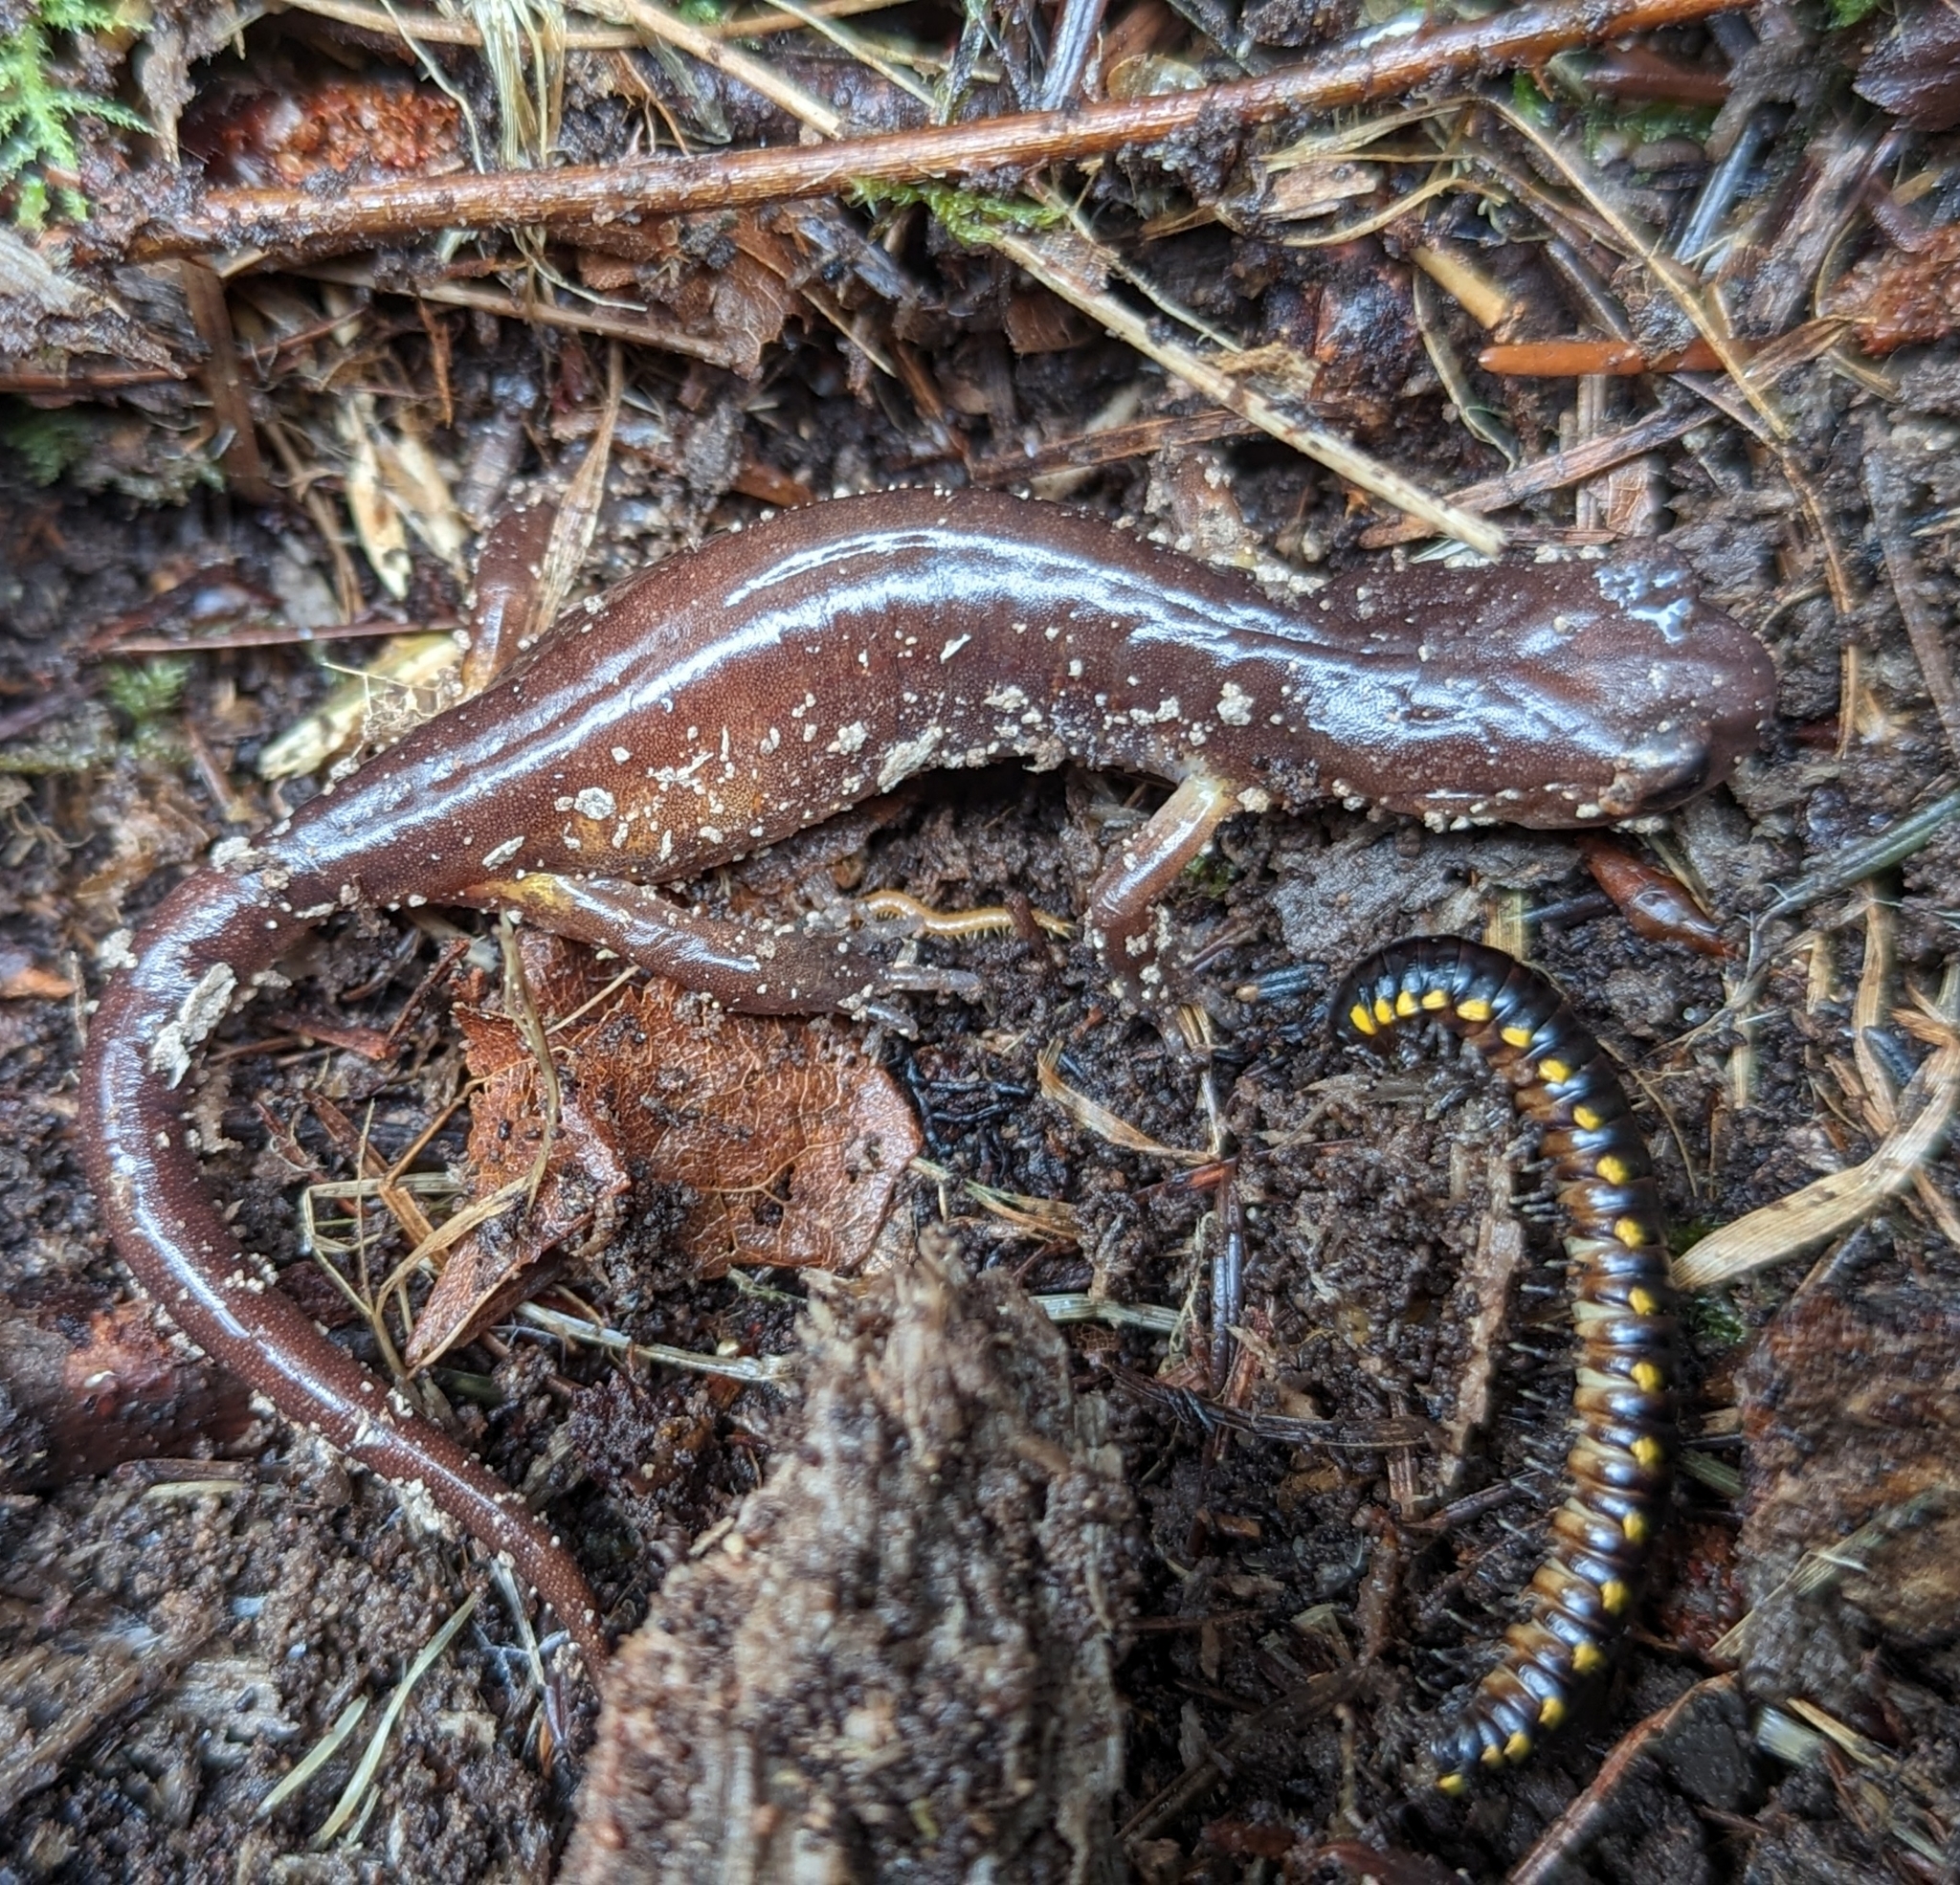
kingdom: Animalia
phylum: Chordata
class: Amphibia
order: Caudata
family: Plethodontidae
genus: Ensatina
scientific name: Ensatina eschscholtzii
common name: Ensatina
